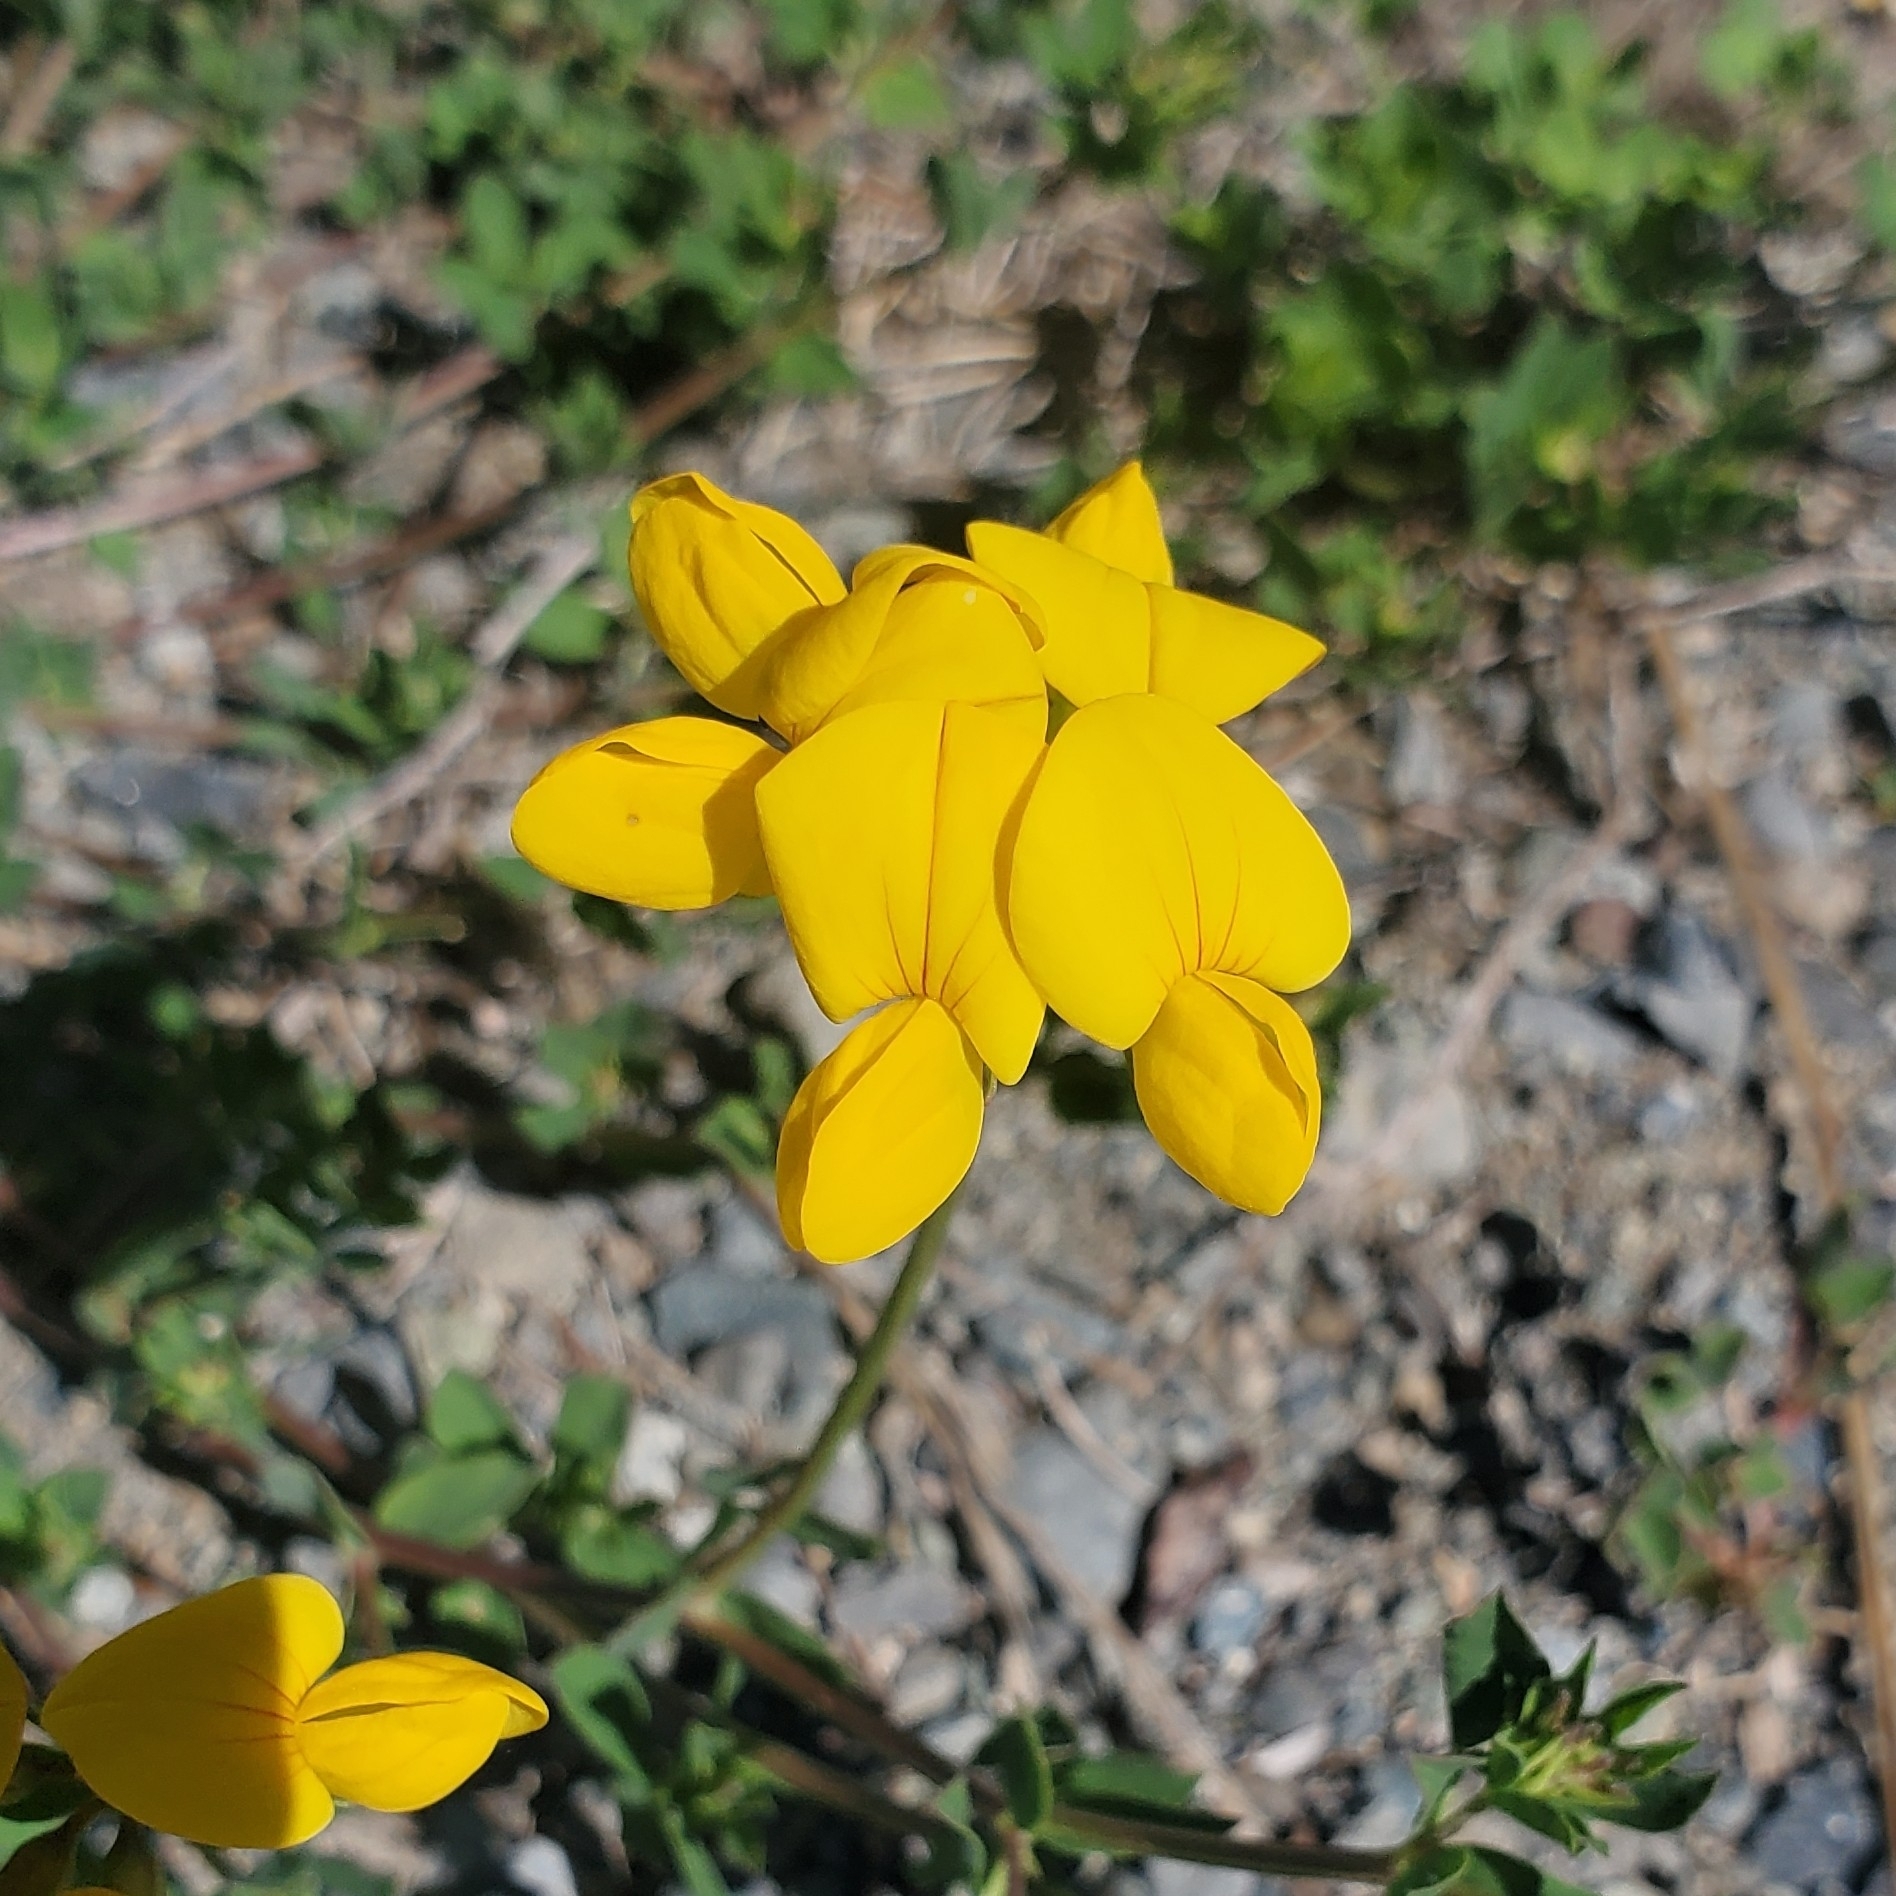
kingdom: Plantae
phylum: Tracheophyta
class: Magnoliopsida
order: Fabales
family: Fabaceae
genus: Lotus
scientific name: Lotus corniculatus
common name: Common bird's-foot-trefoil
